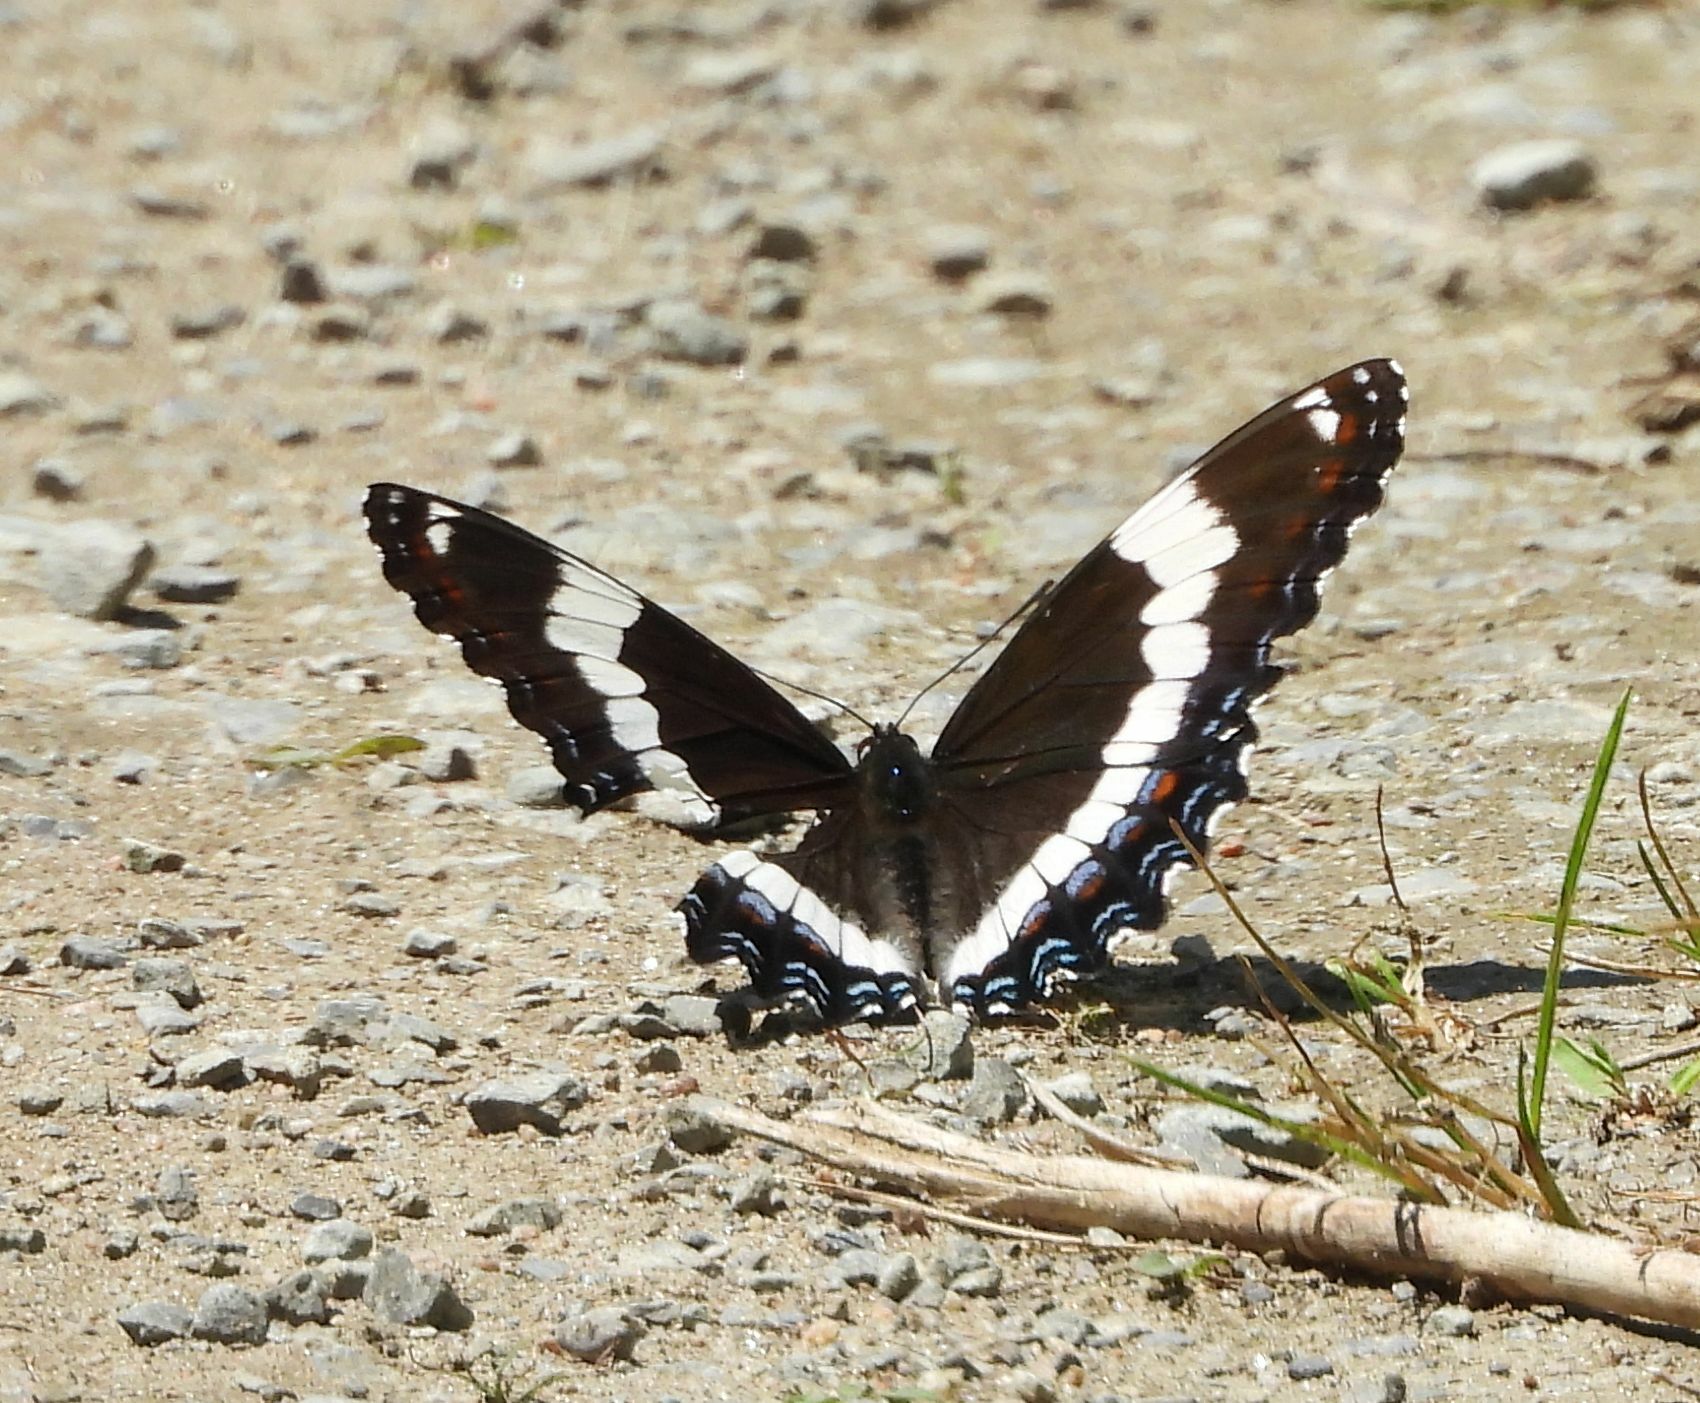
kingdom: Animalia
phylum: Arthropoda
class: Insecta
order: Lepidoptera
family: Nymphalidae
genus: Limenitis
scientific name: Limenitis arthemis
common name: Red-spotted admiral
